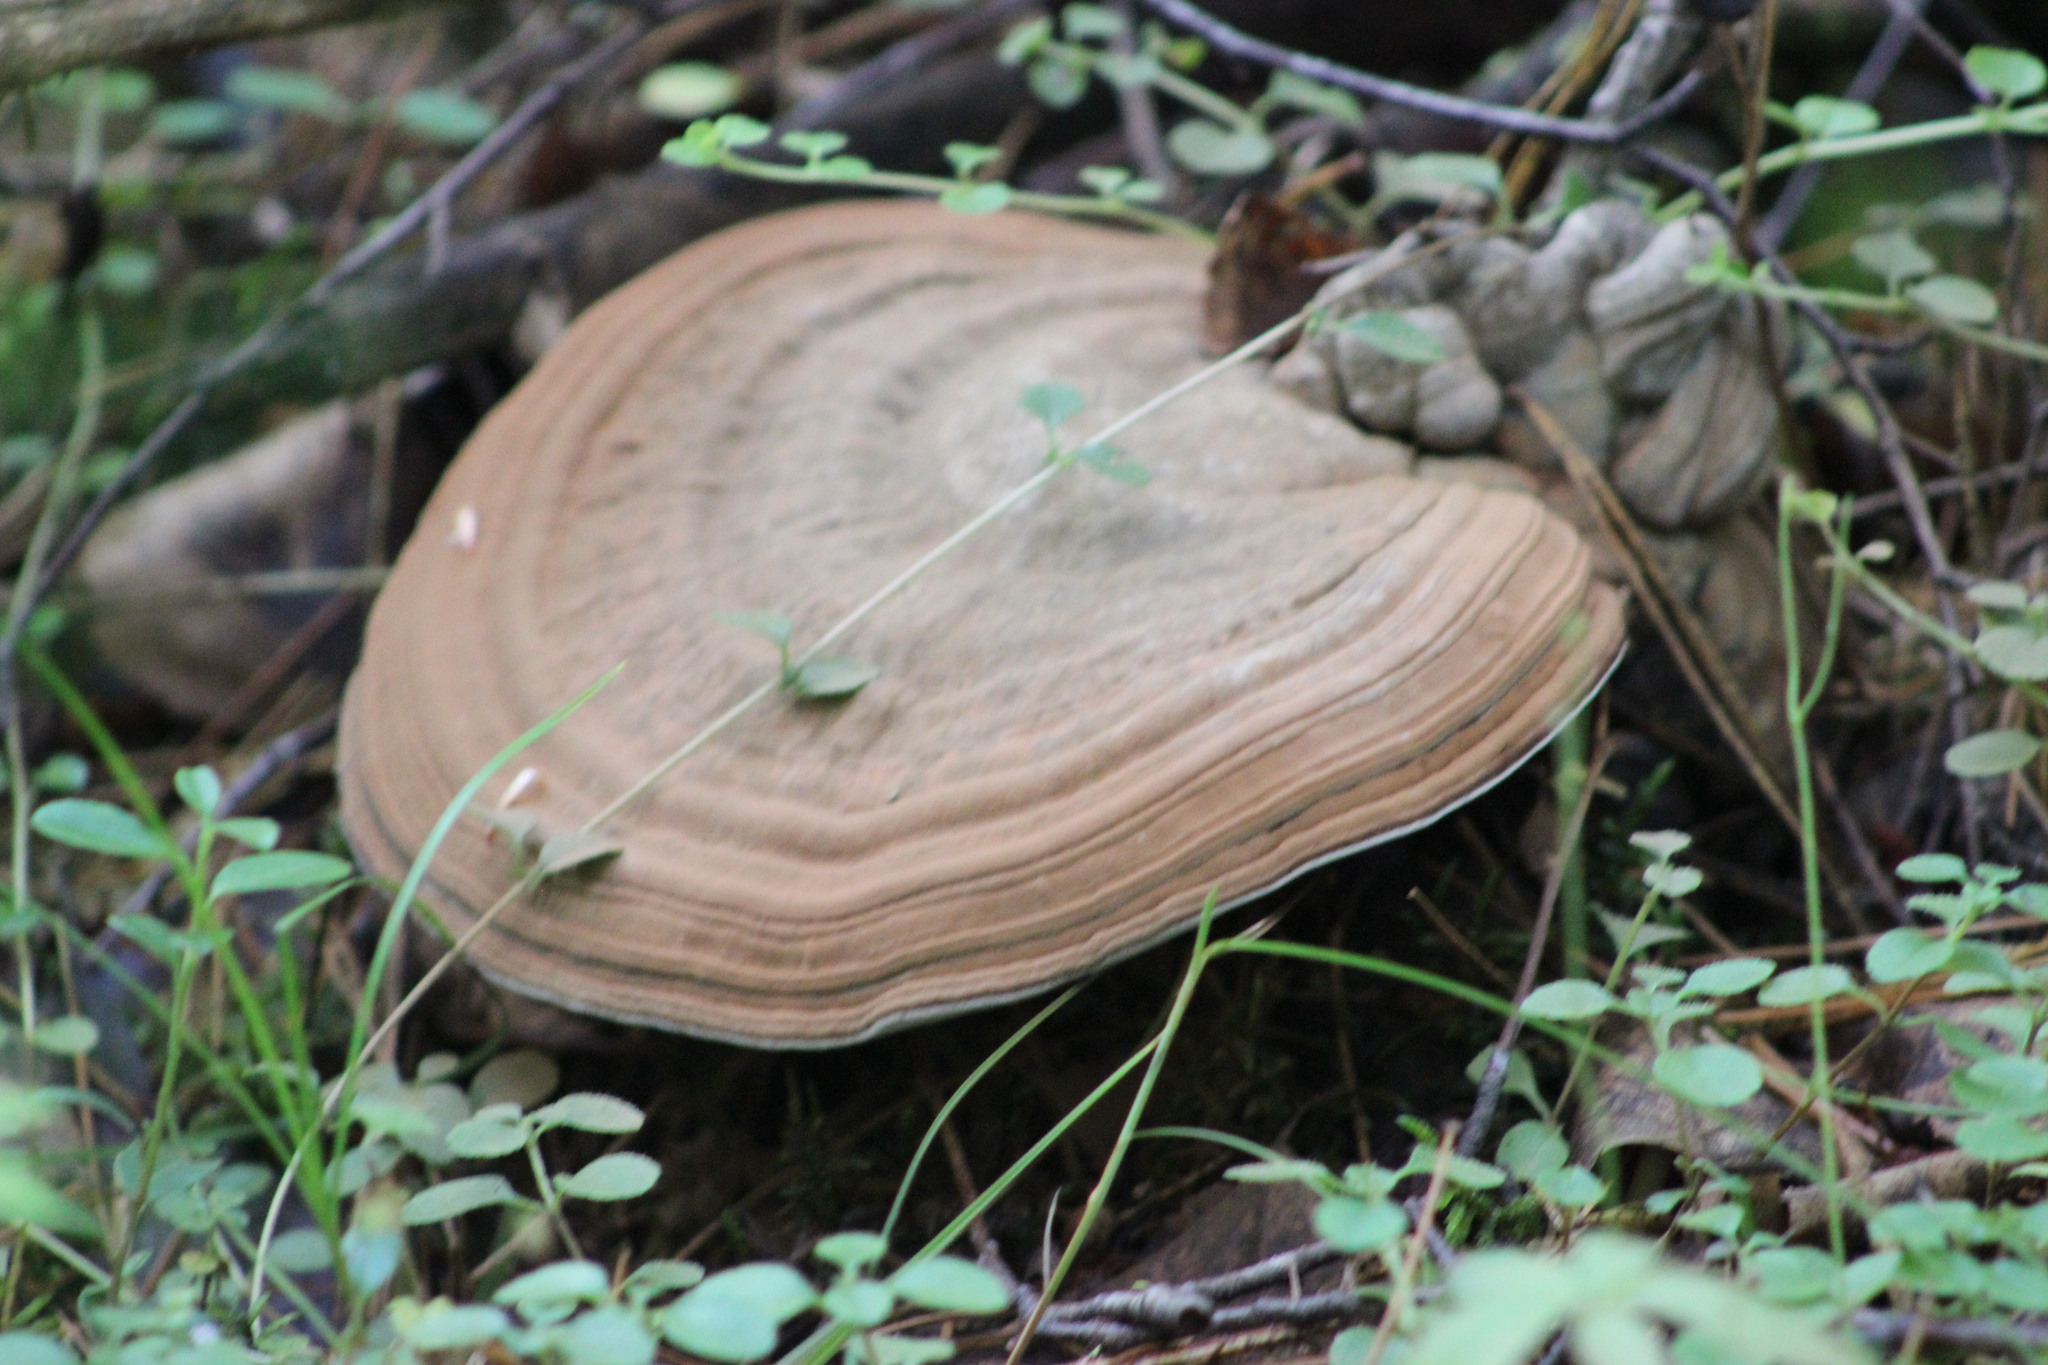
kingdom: Fungi
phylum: Basidiomycota
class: Agaricomycetes
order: Polyporales
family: Polyporaceae
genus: Ganoderma
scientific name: Ganoderma applanatum
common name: Artist's bracket
